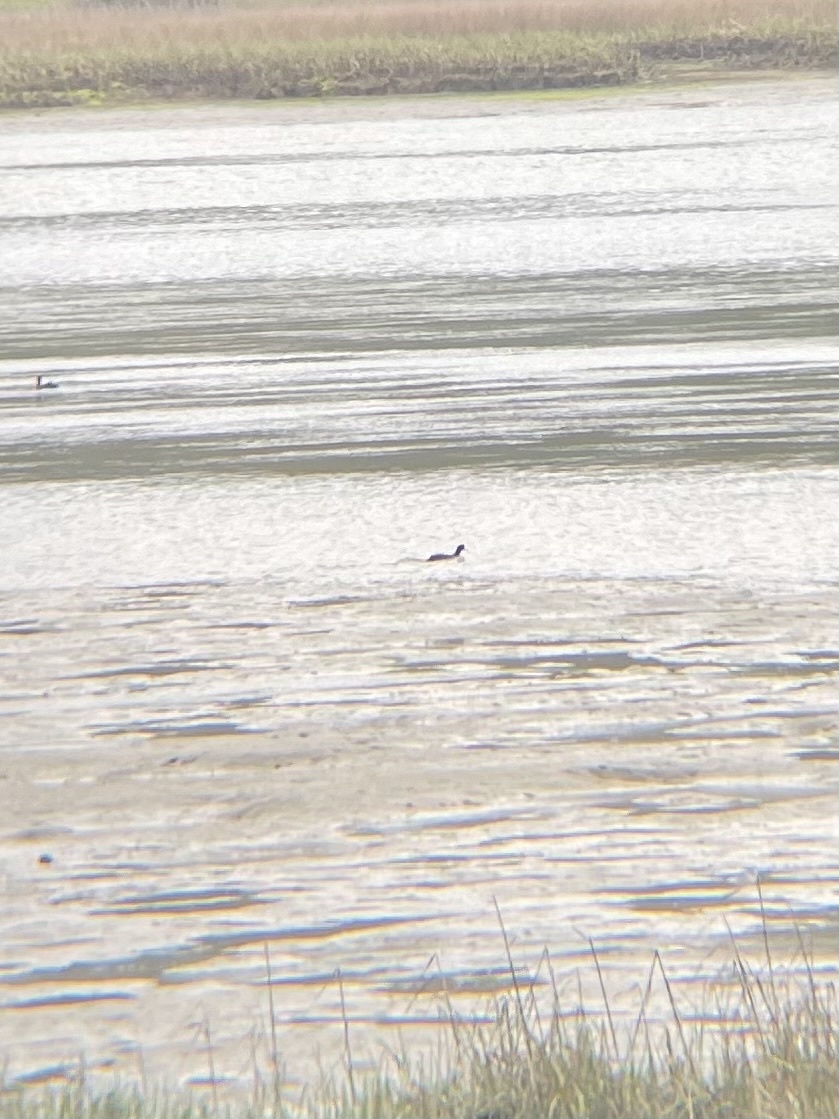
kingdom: Animalia
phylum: Chordata
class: Aves
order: Gruiformes
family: Rallidae
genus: Fulica
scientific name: Fulica americana
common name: American coot
